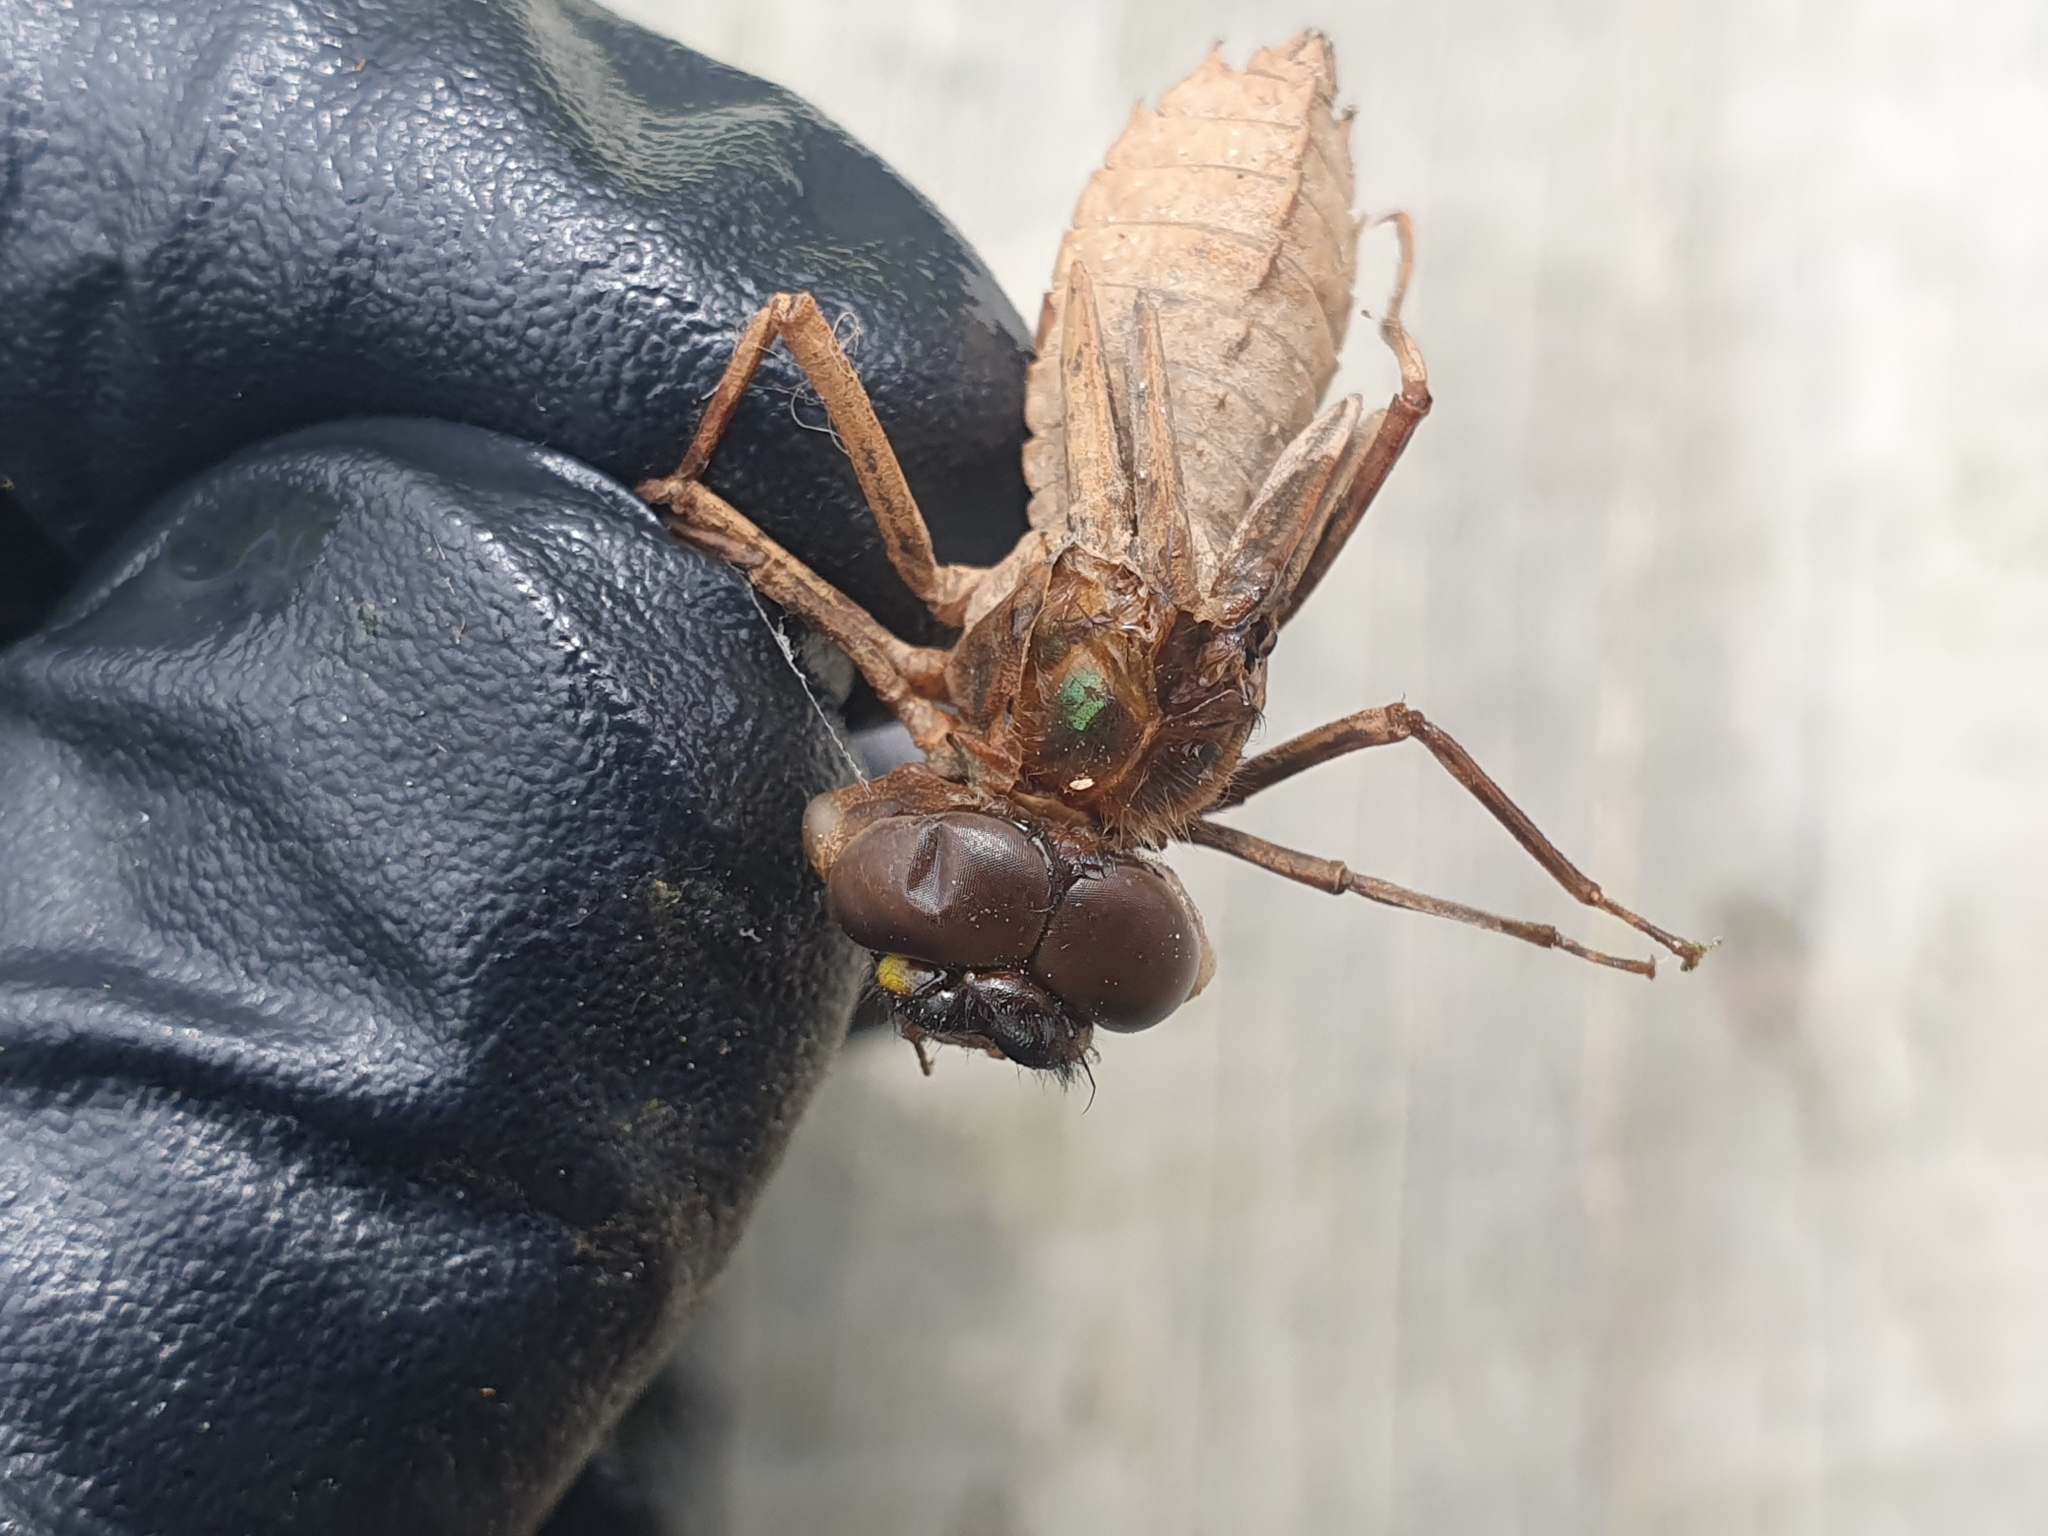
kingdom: Animalia
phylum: Arthropoda
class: Insecta
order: Odonata
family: Corduliidae
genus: Antipodochlora
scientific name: Antipodochlora braueri
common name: Dusk dragonfly
